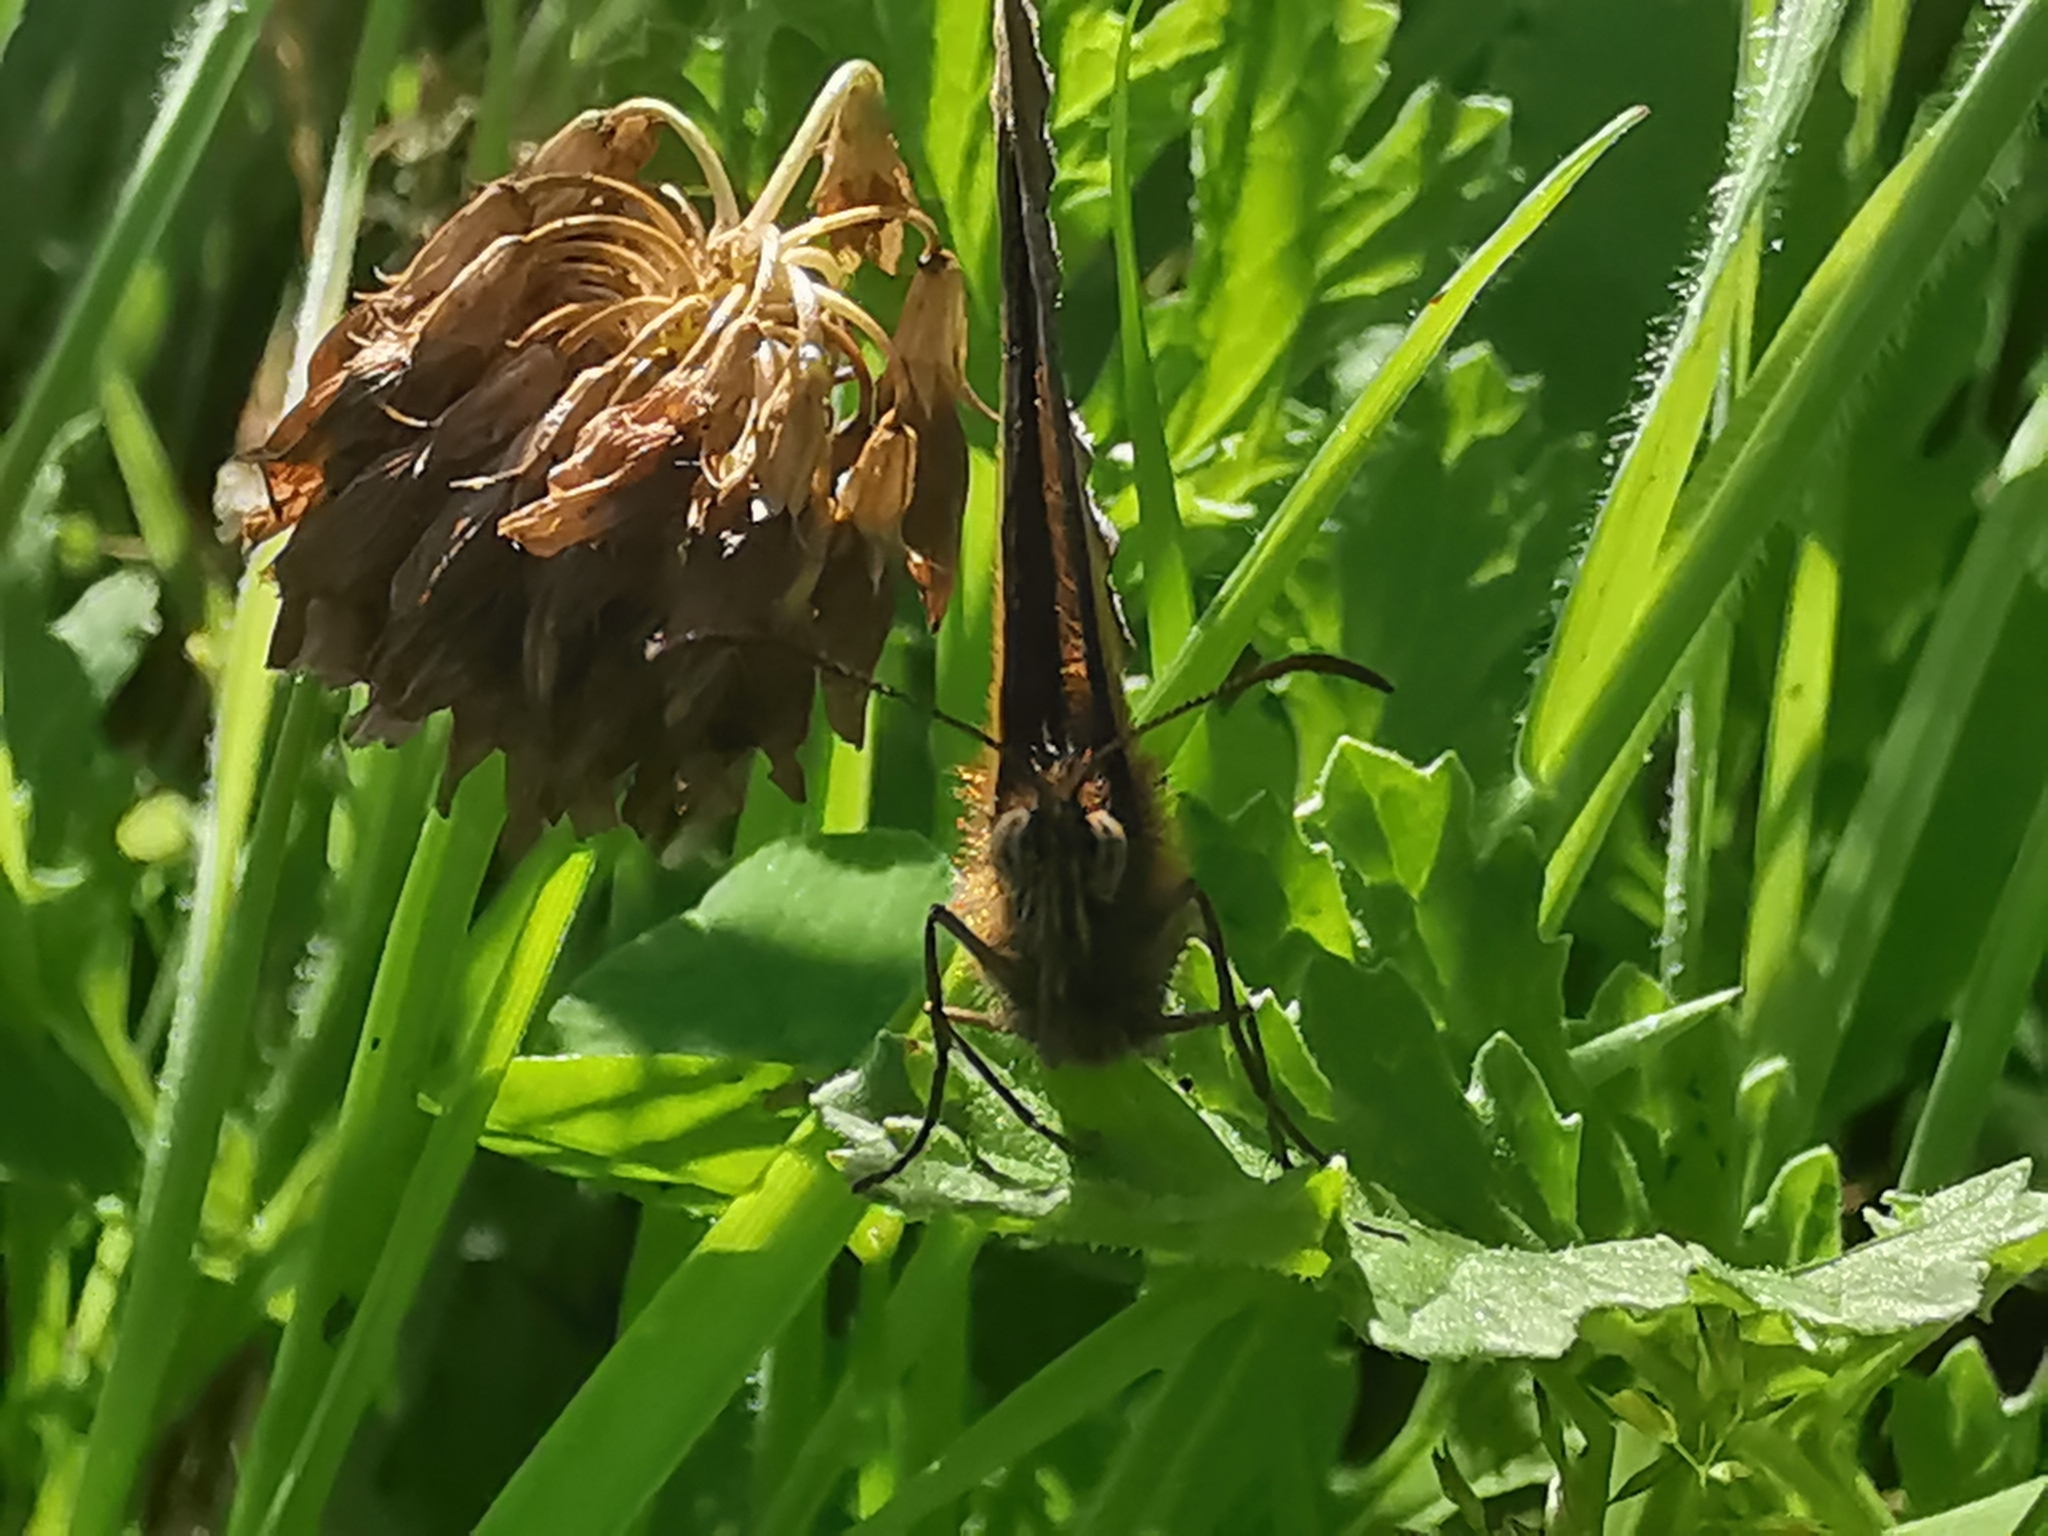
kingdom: Animalia
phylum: Arthropoda
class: Insecta
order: Lepidoptera
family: Nymphalidae
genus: Pyronia
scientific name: Pyronia tithonus
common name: Gatekeeper
